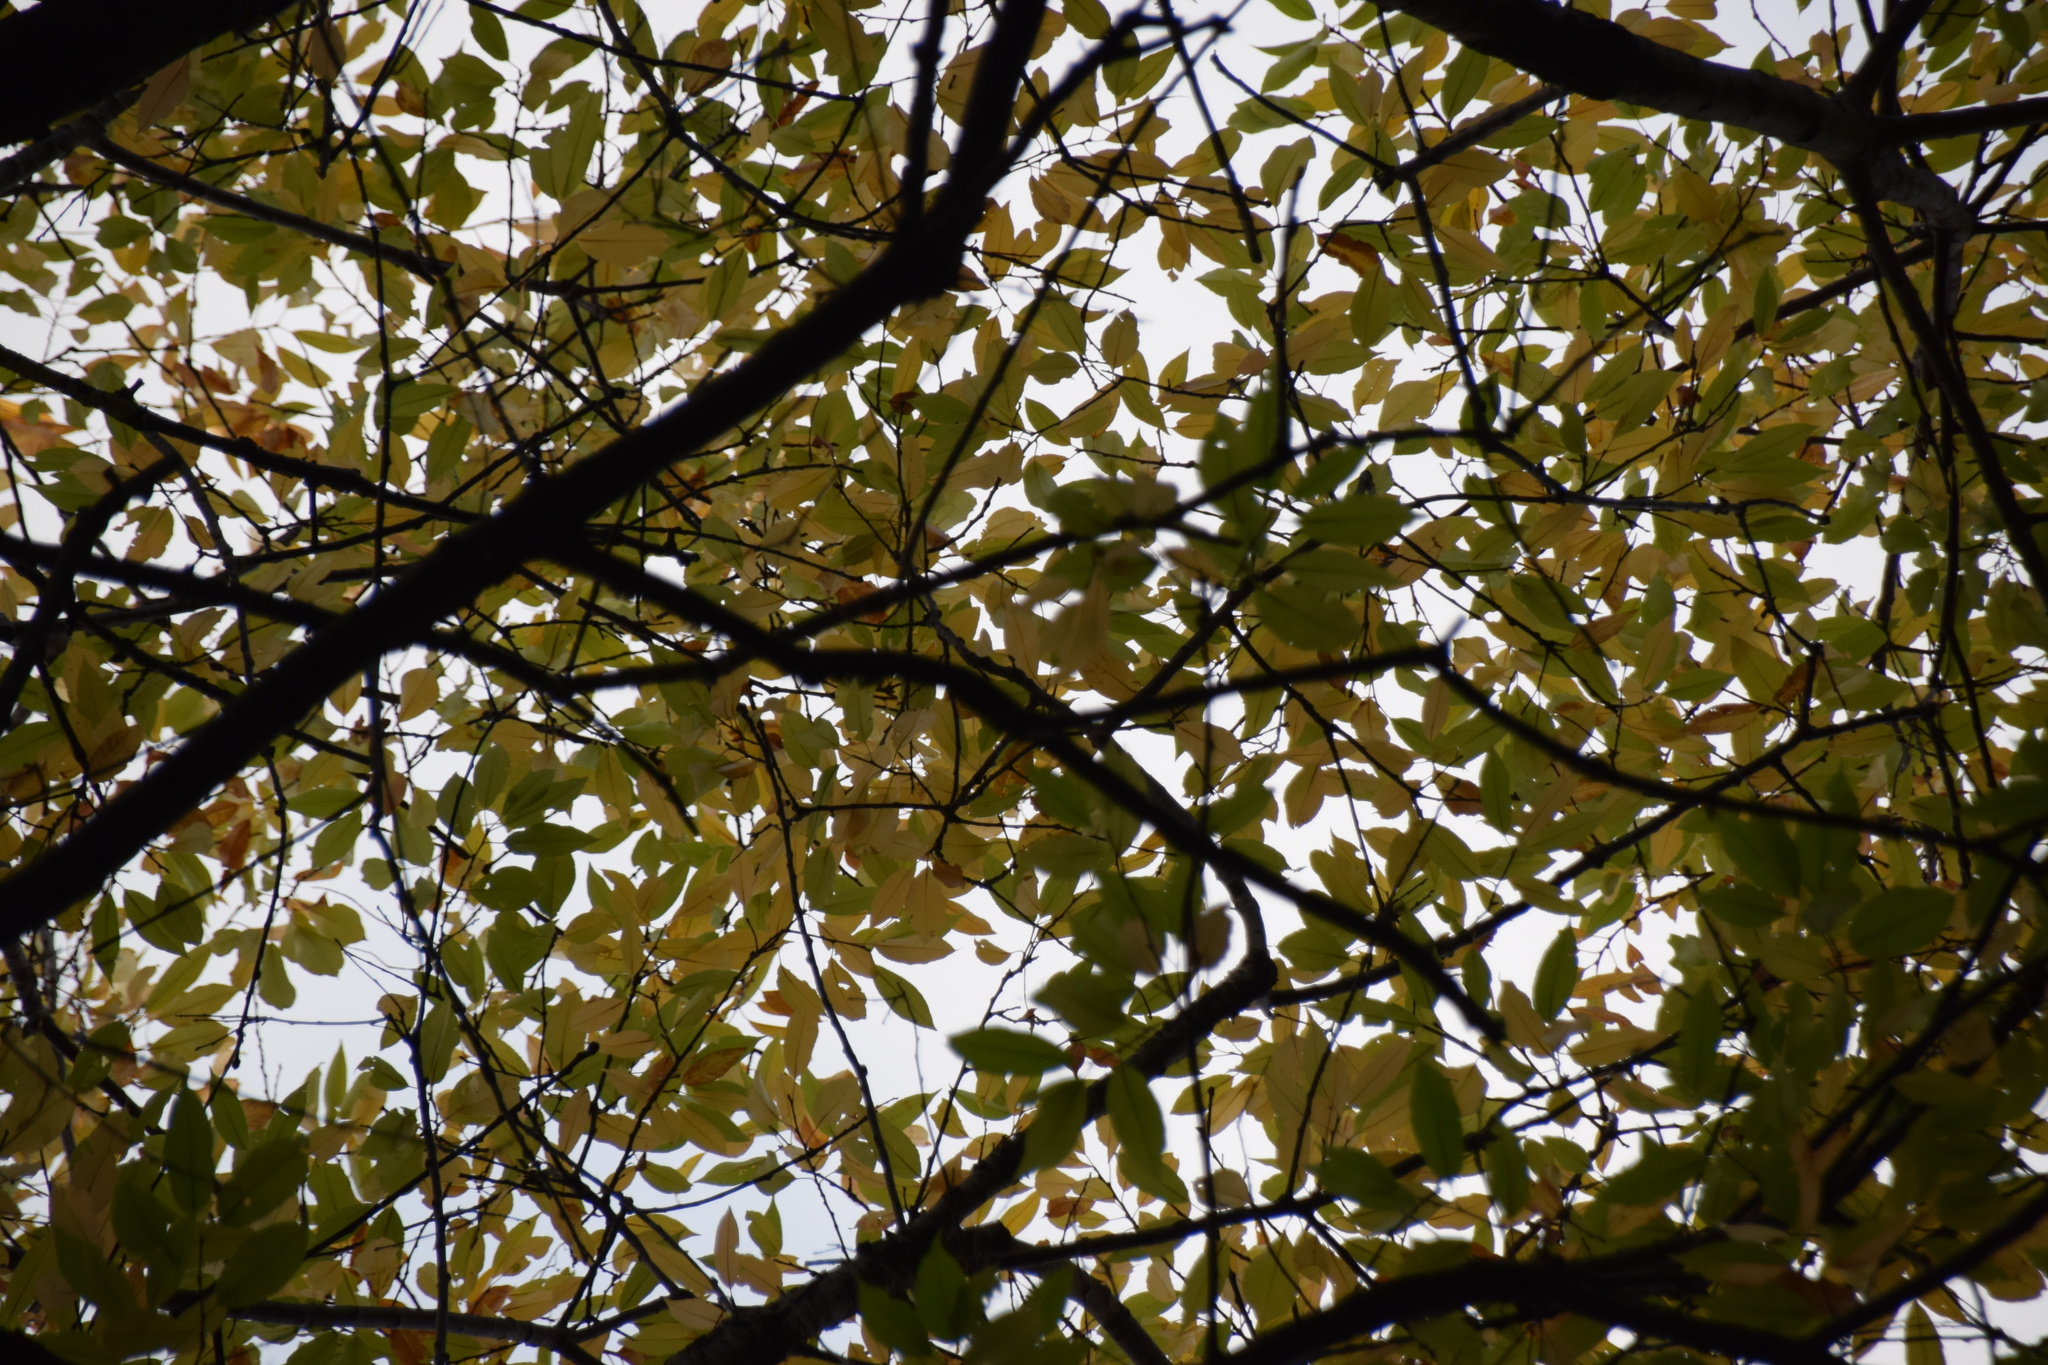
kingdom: Plantae
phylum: Tracheophyta
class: Magnoliopsida
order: Rosales
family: Rosaceae
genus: Prunus
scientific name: Prunus serotina
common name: Black cherry
